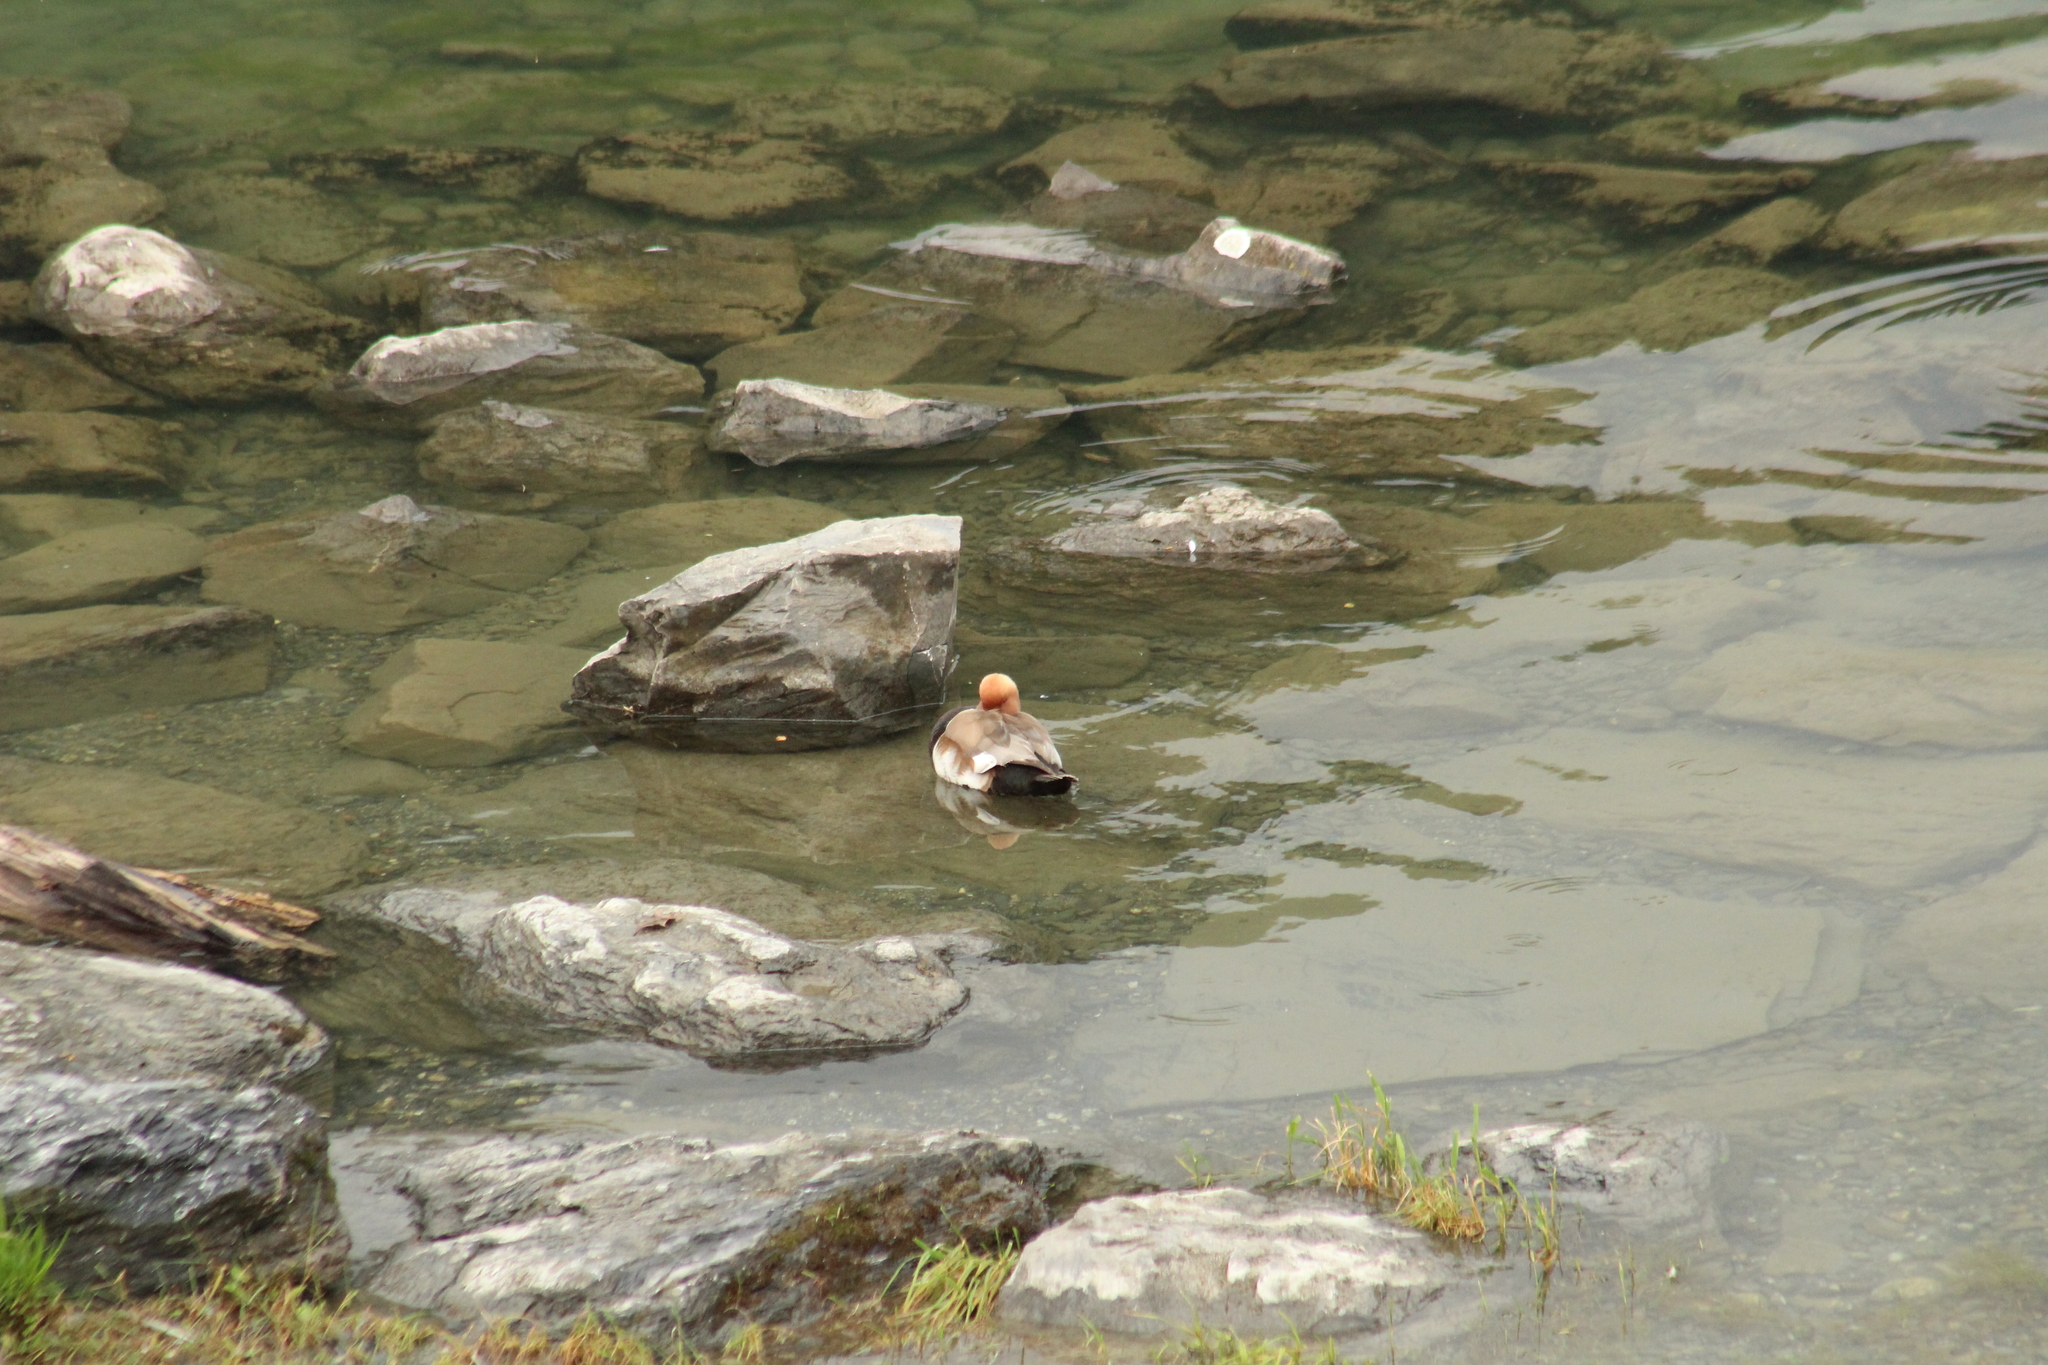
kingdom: Animalia
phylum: Chordata
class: Aves
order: Anseriformes
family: Anatidae
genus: Netta
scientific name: Netta rufina
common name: Red-crested pochard
